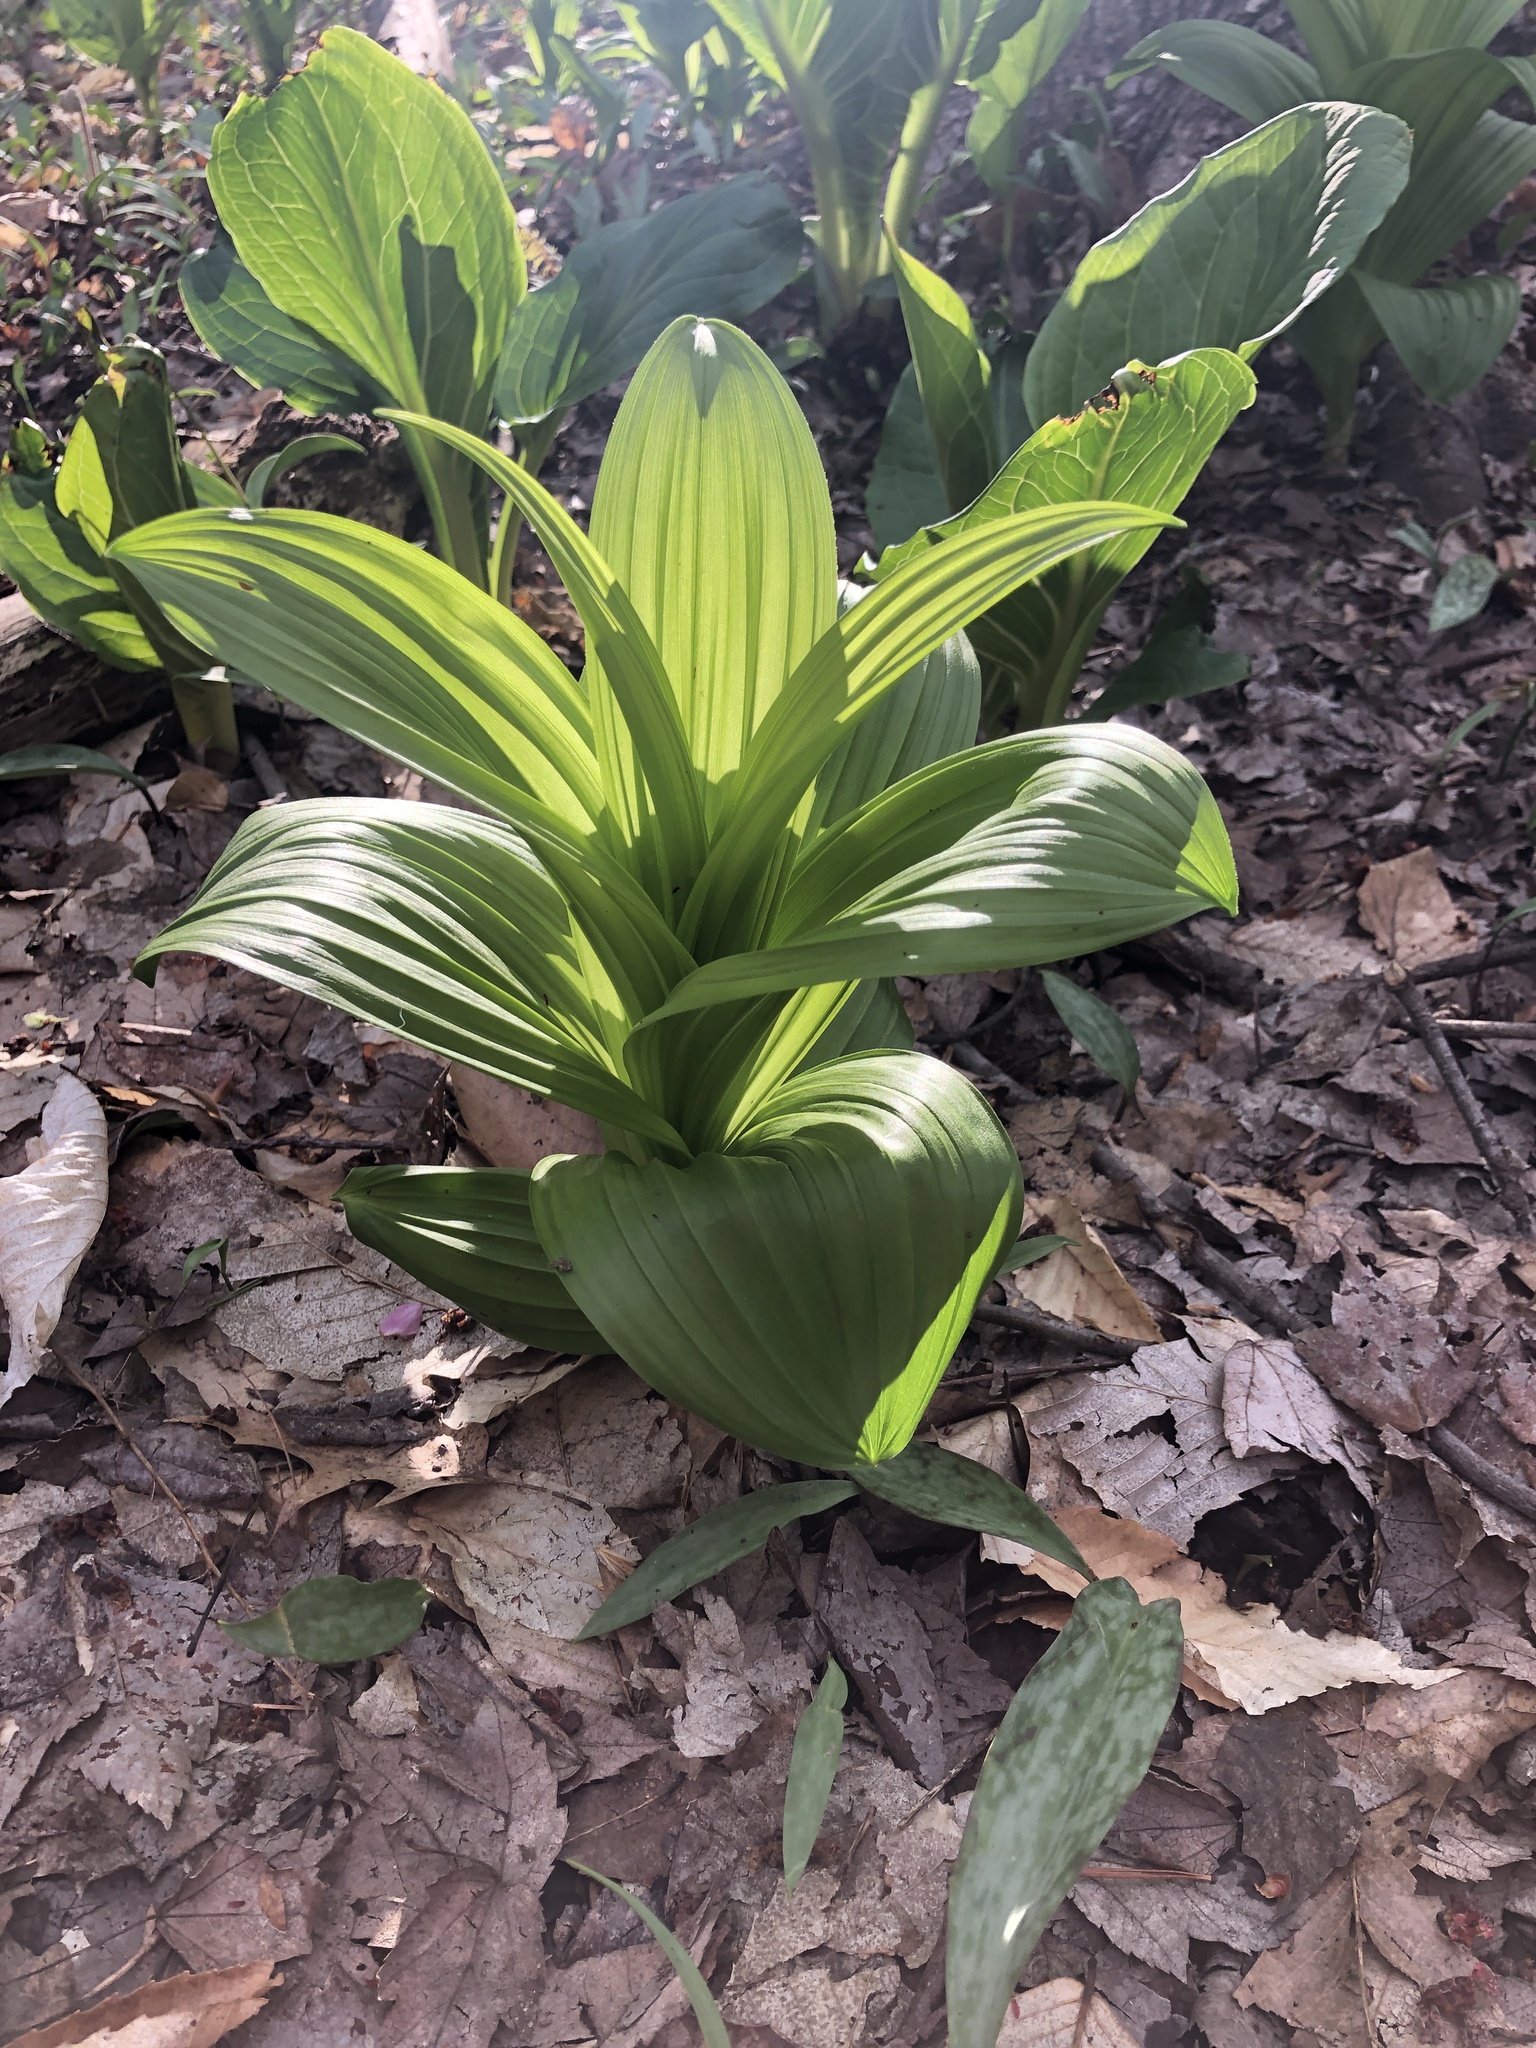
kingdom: Plantae
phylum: Tracheophyta
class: Liliopsida
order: Liliales
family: Melanthiaceae
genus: Veratrum
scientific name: Veratrum viride
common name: American false hellebore
